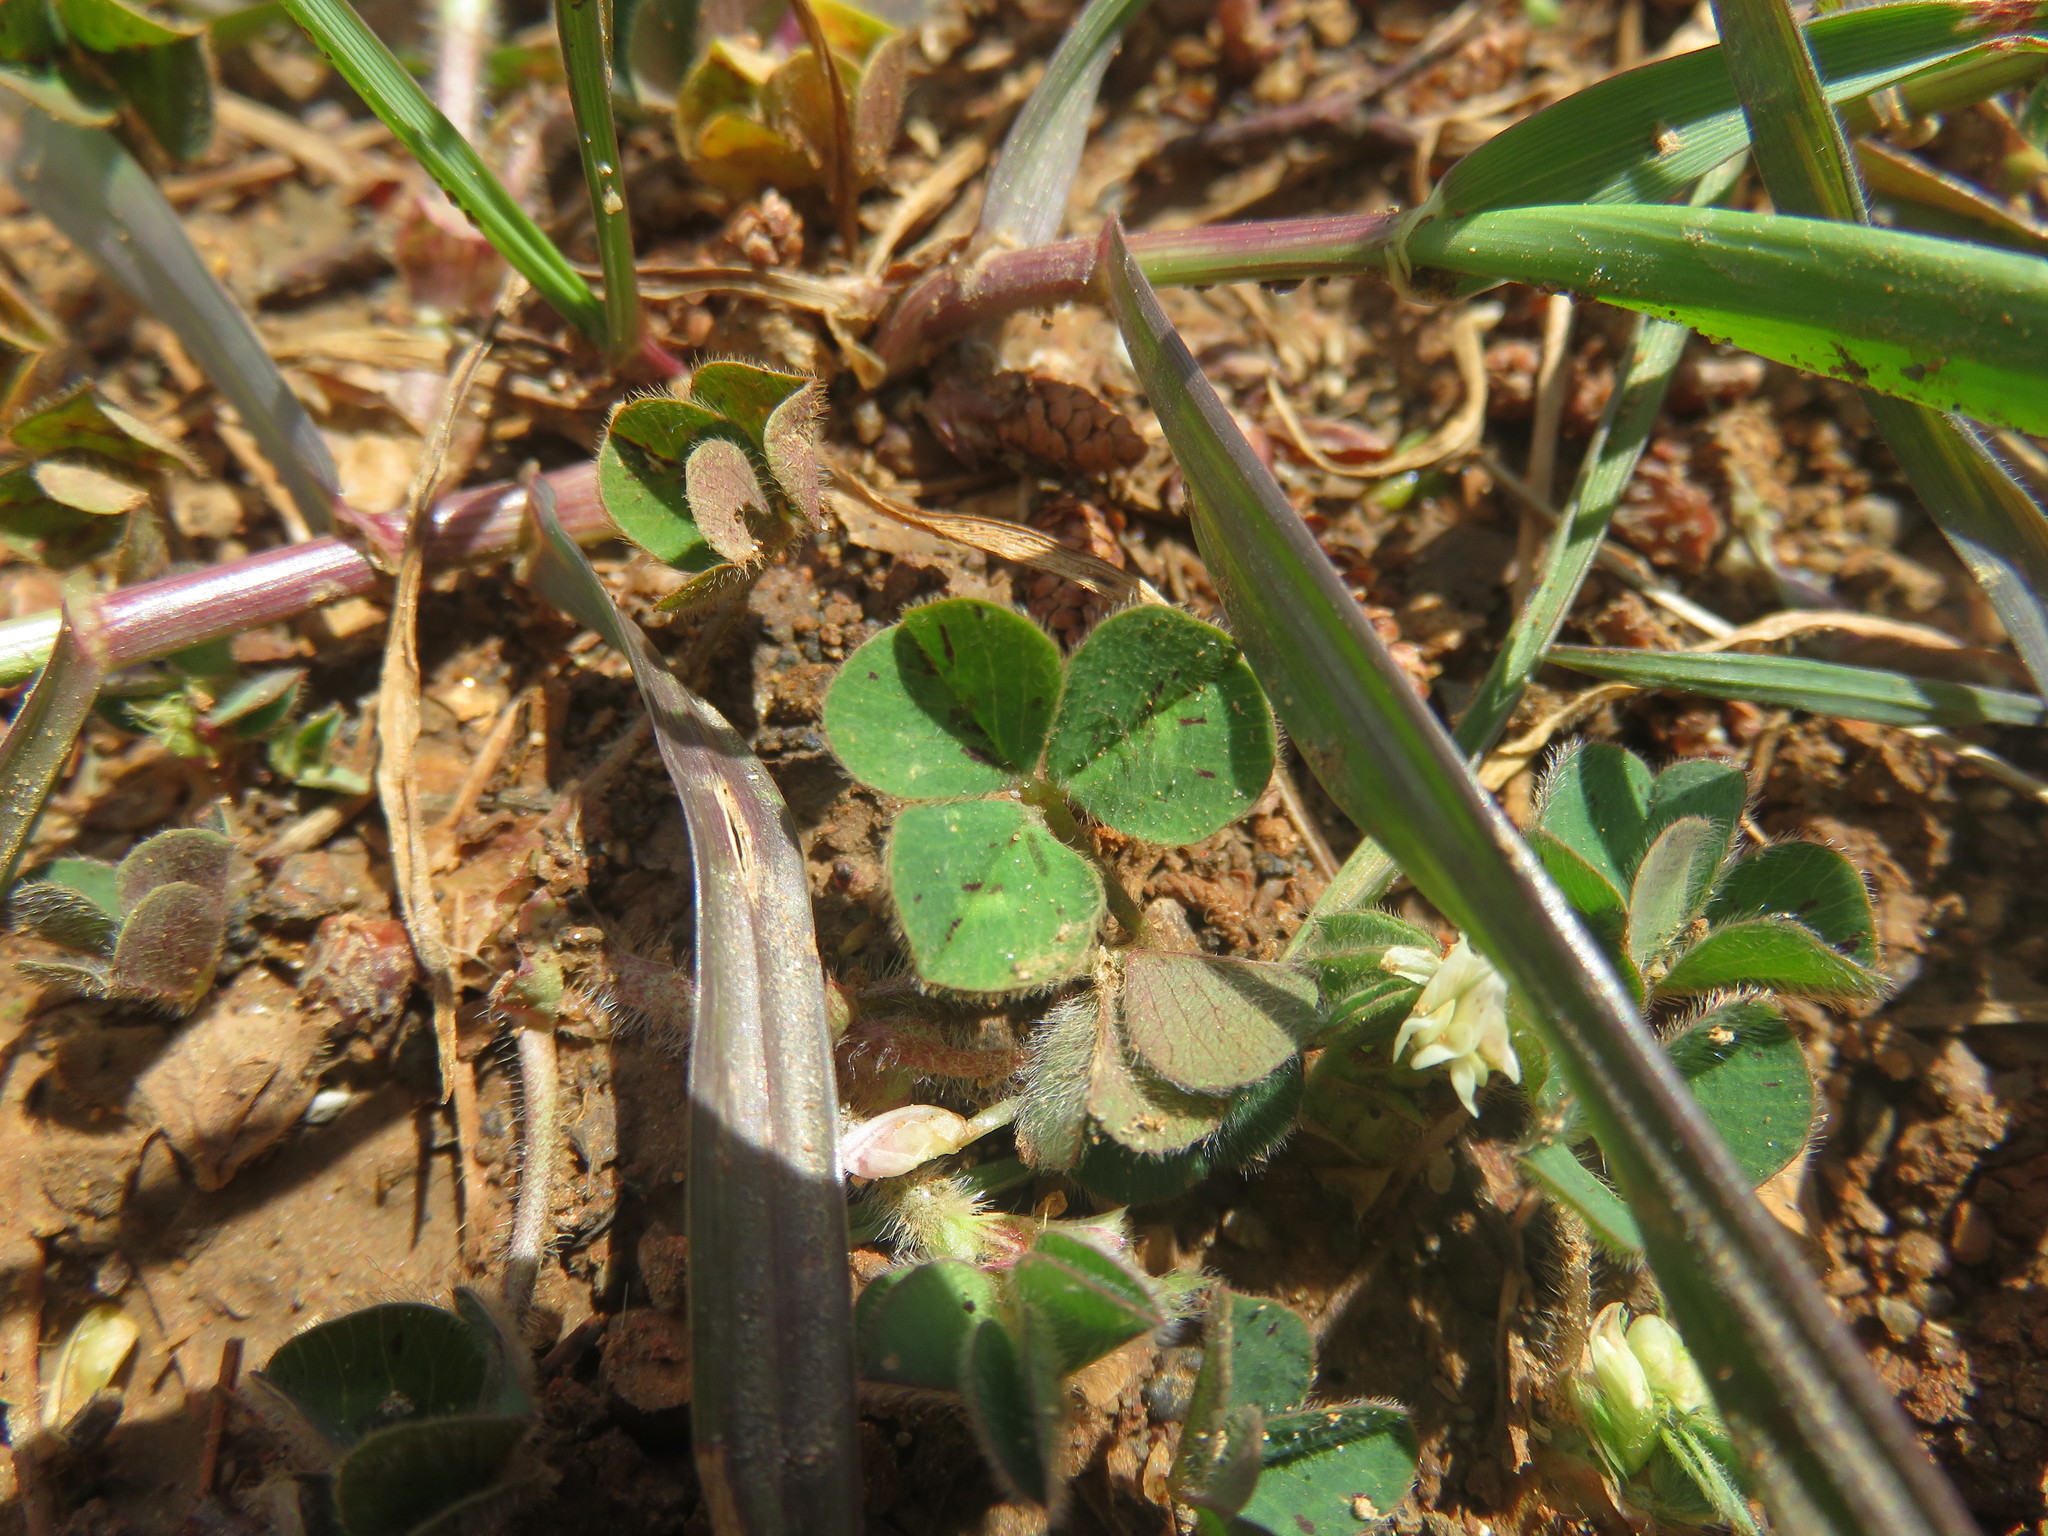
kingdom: Plantae
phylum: Tracheophyta
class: Magnoliopsida
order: Fabales
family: Fabaceae
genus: Trifolium
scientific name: Trifolium subterraneum
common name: Subterranean clover
